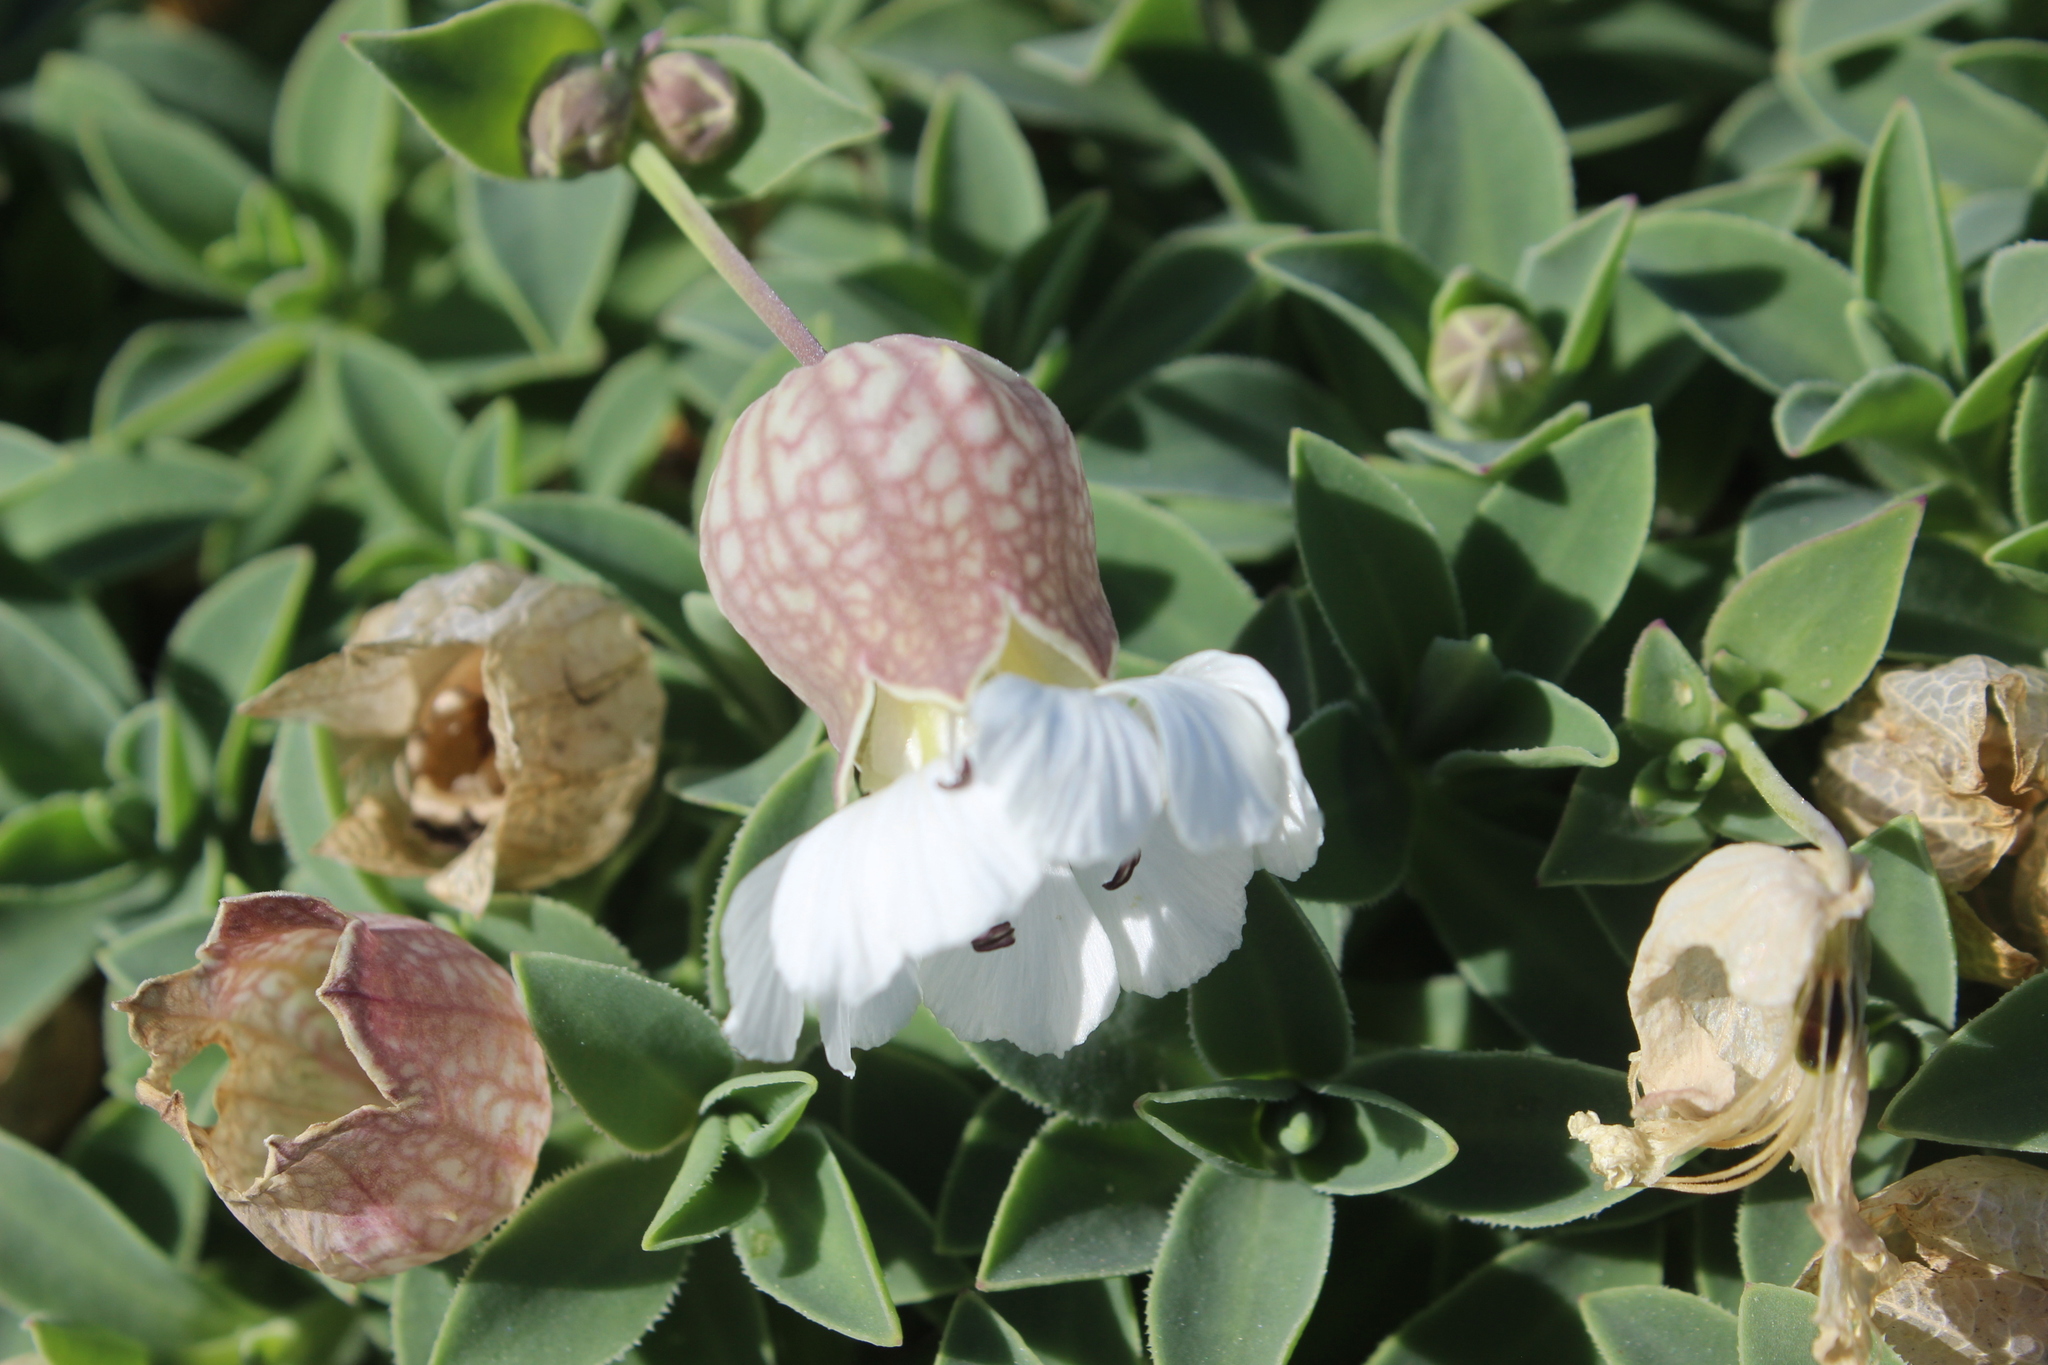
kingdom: Plantae
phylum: Tracheophyta
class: Magnoliopsida
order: Caryophyllales
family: Caryophyllaceae
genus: Silene
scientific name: Silene uniflora
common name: Sea campion
